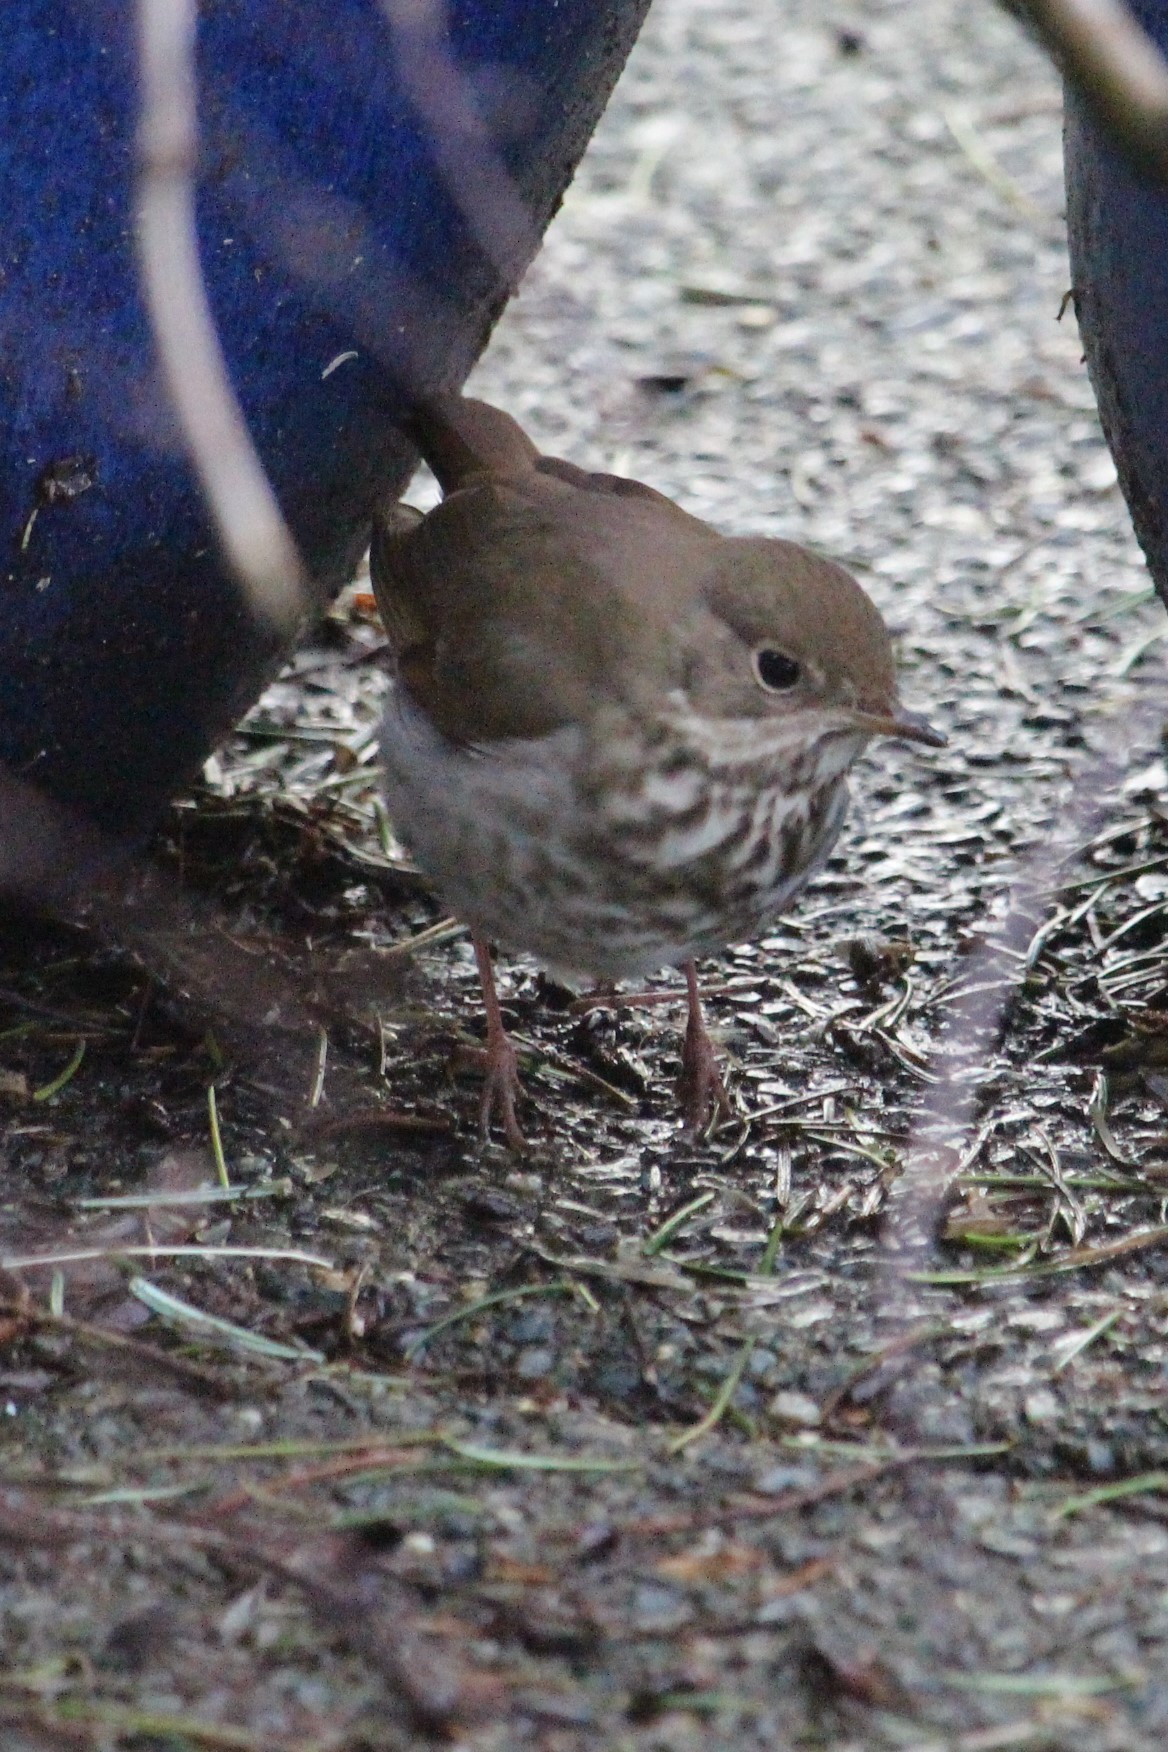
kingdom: Animalia
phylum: Chordata
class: Aves
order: Passeriformes
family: Turdidae
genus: Catharus
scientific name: Catharus guttatus
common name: Hermit thrush
